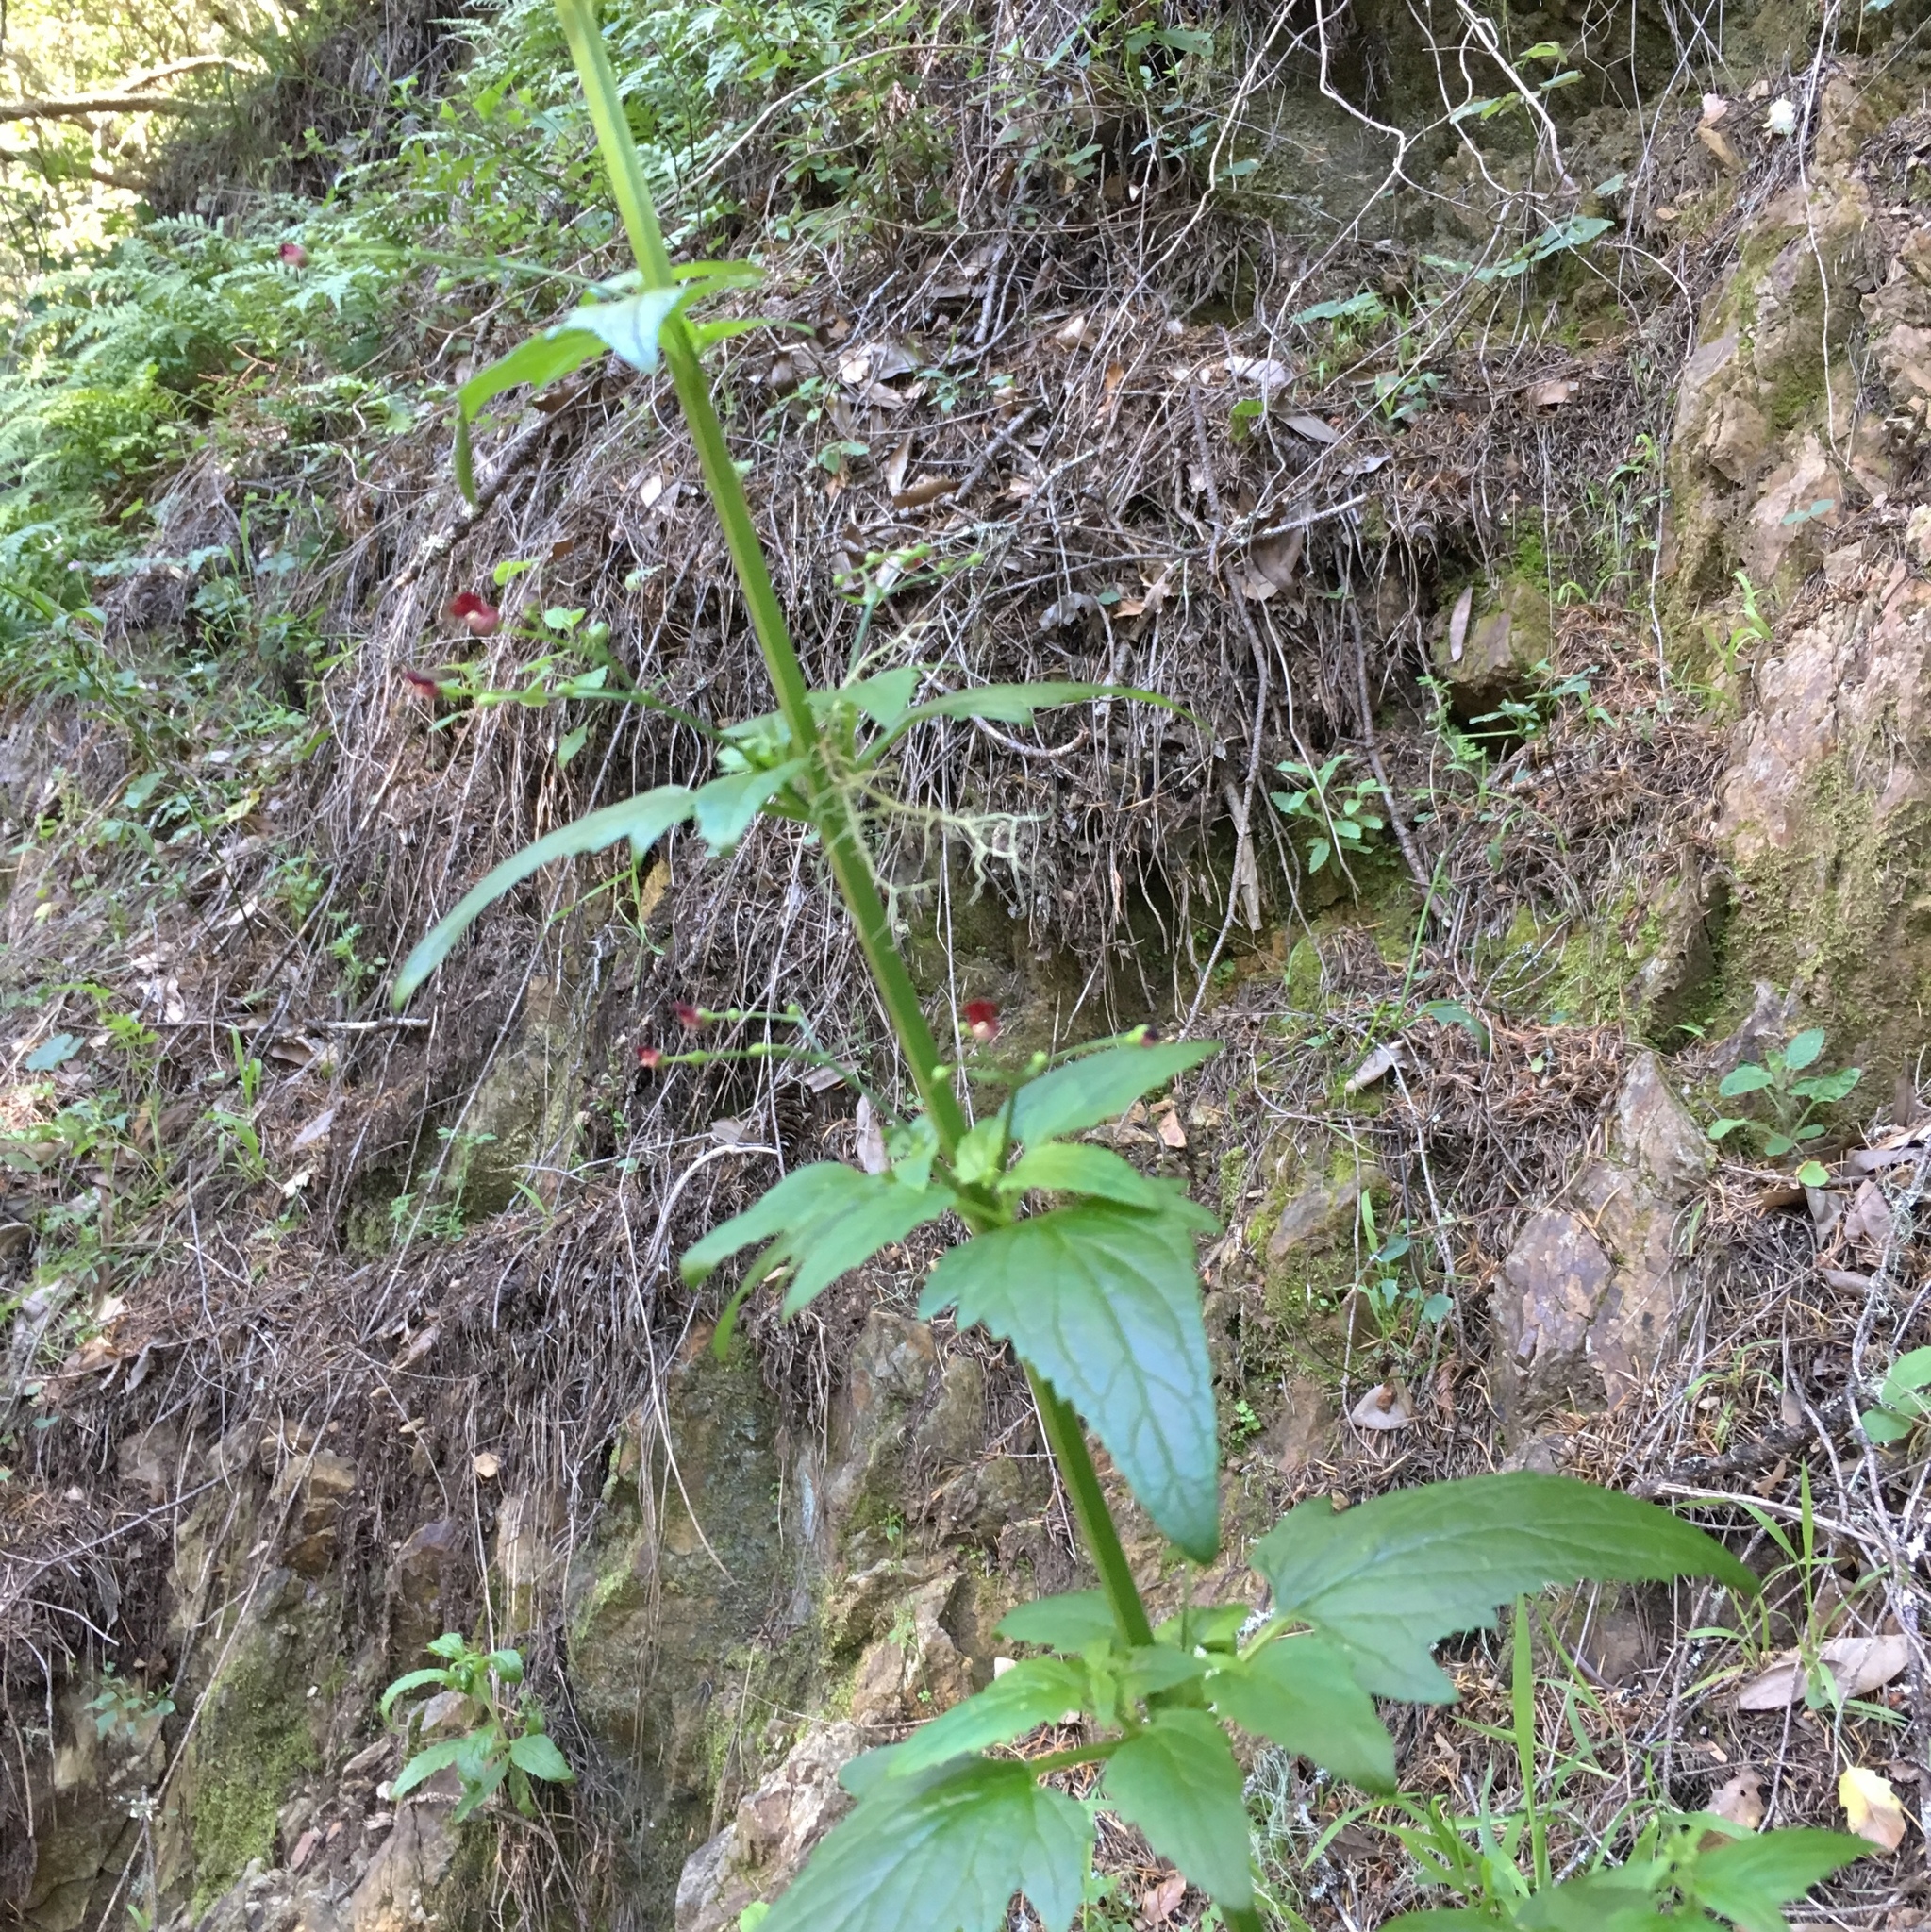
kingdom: Plantae
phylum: Tracheophyta
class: Magnoliopsida
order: Lamiales
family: Scrophulariaceae
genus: Scrophularia
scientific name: Scrophularia californica
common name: California figwort
